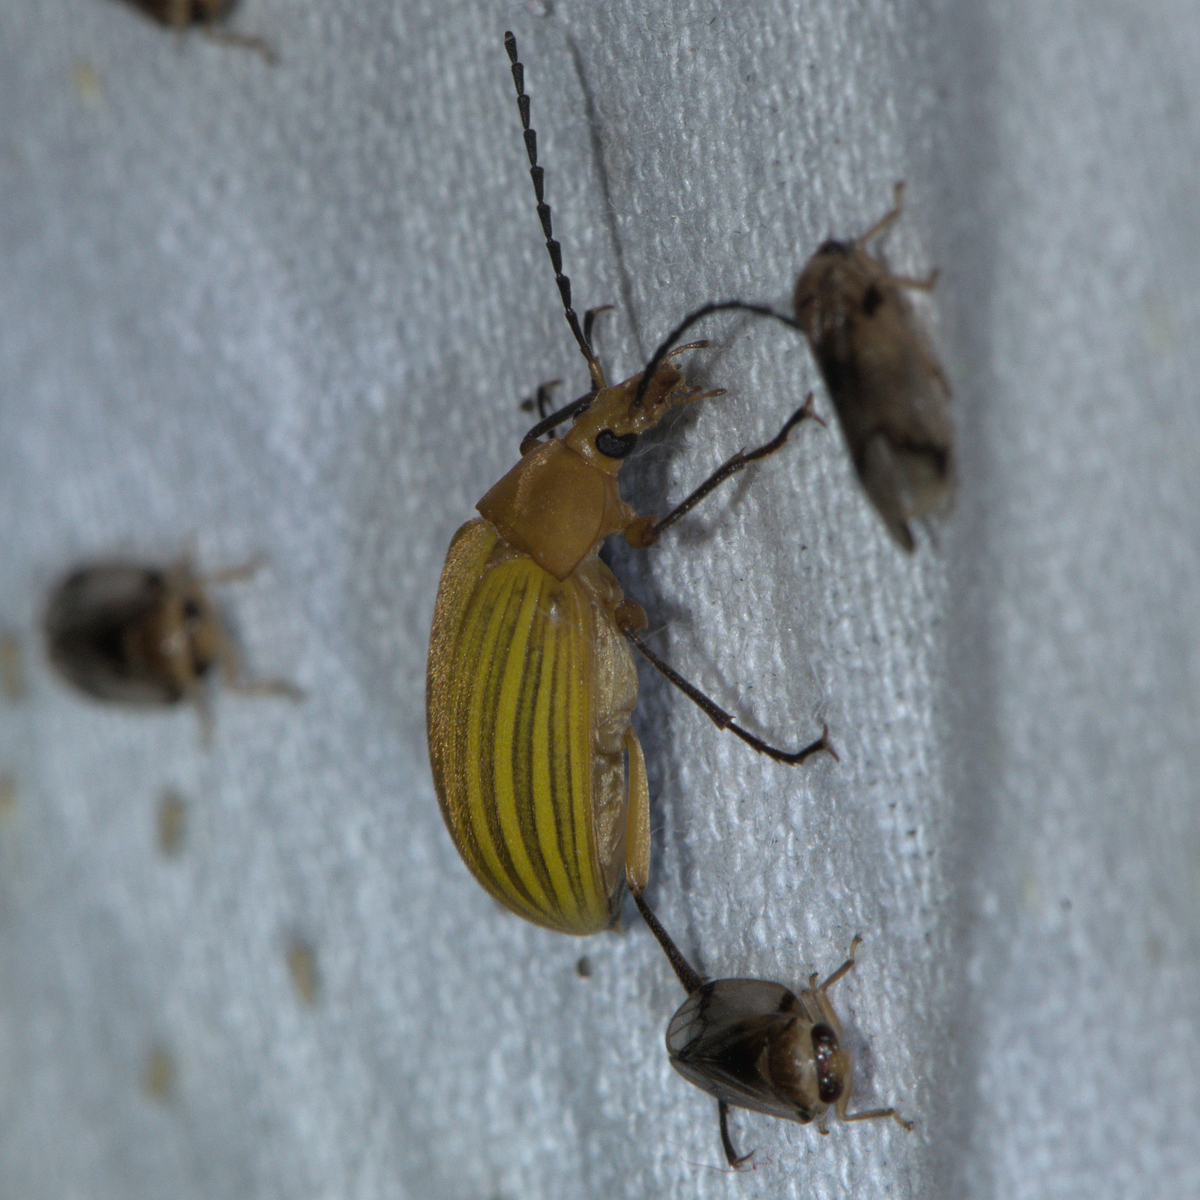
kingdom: Animalia
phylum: Arthropoda
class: Insecta
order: Coleoptera
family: Tenebrionidae
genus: Cistelomorpha
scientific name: Cistelomorpha
